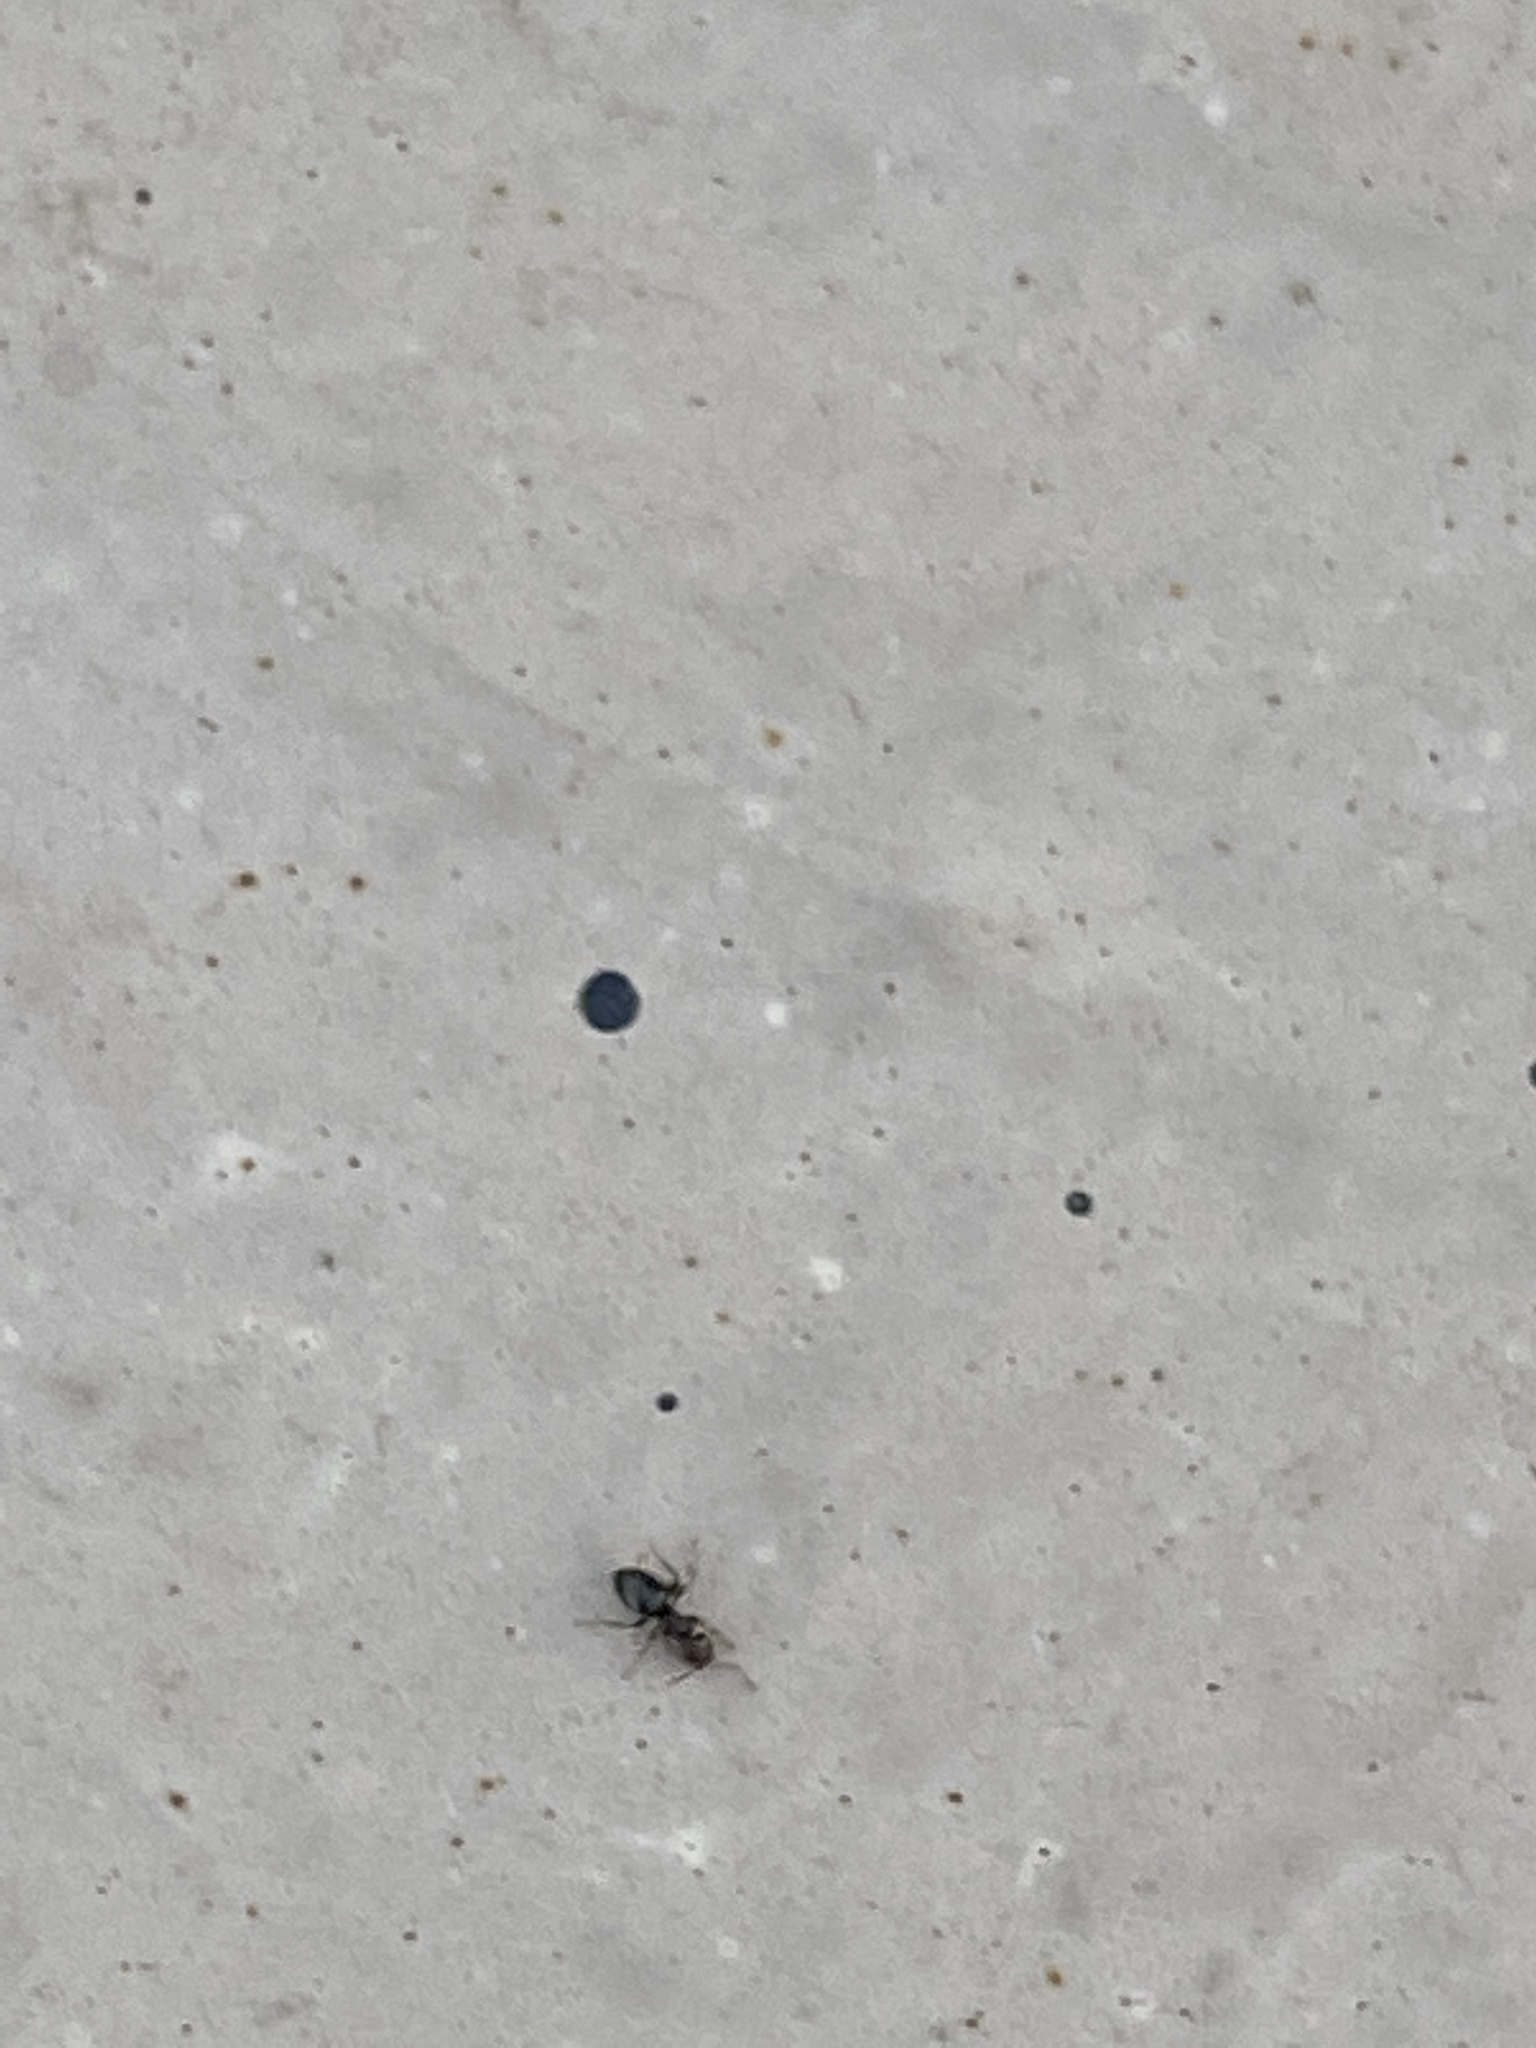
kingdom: Animalia
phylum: Arthropoda
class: Insecta
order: Hymenoptera
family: Formicidae
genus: Brachymyrmex
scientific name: Brachymyrmex patagonicus
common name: Dark rover ant
